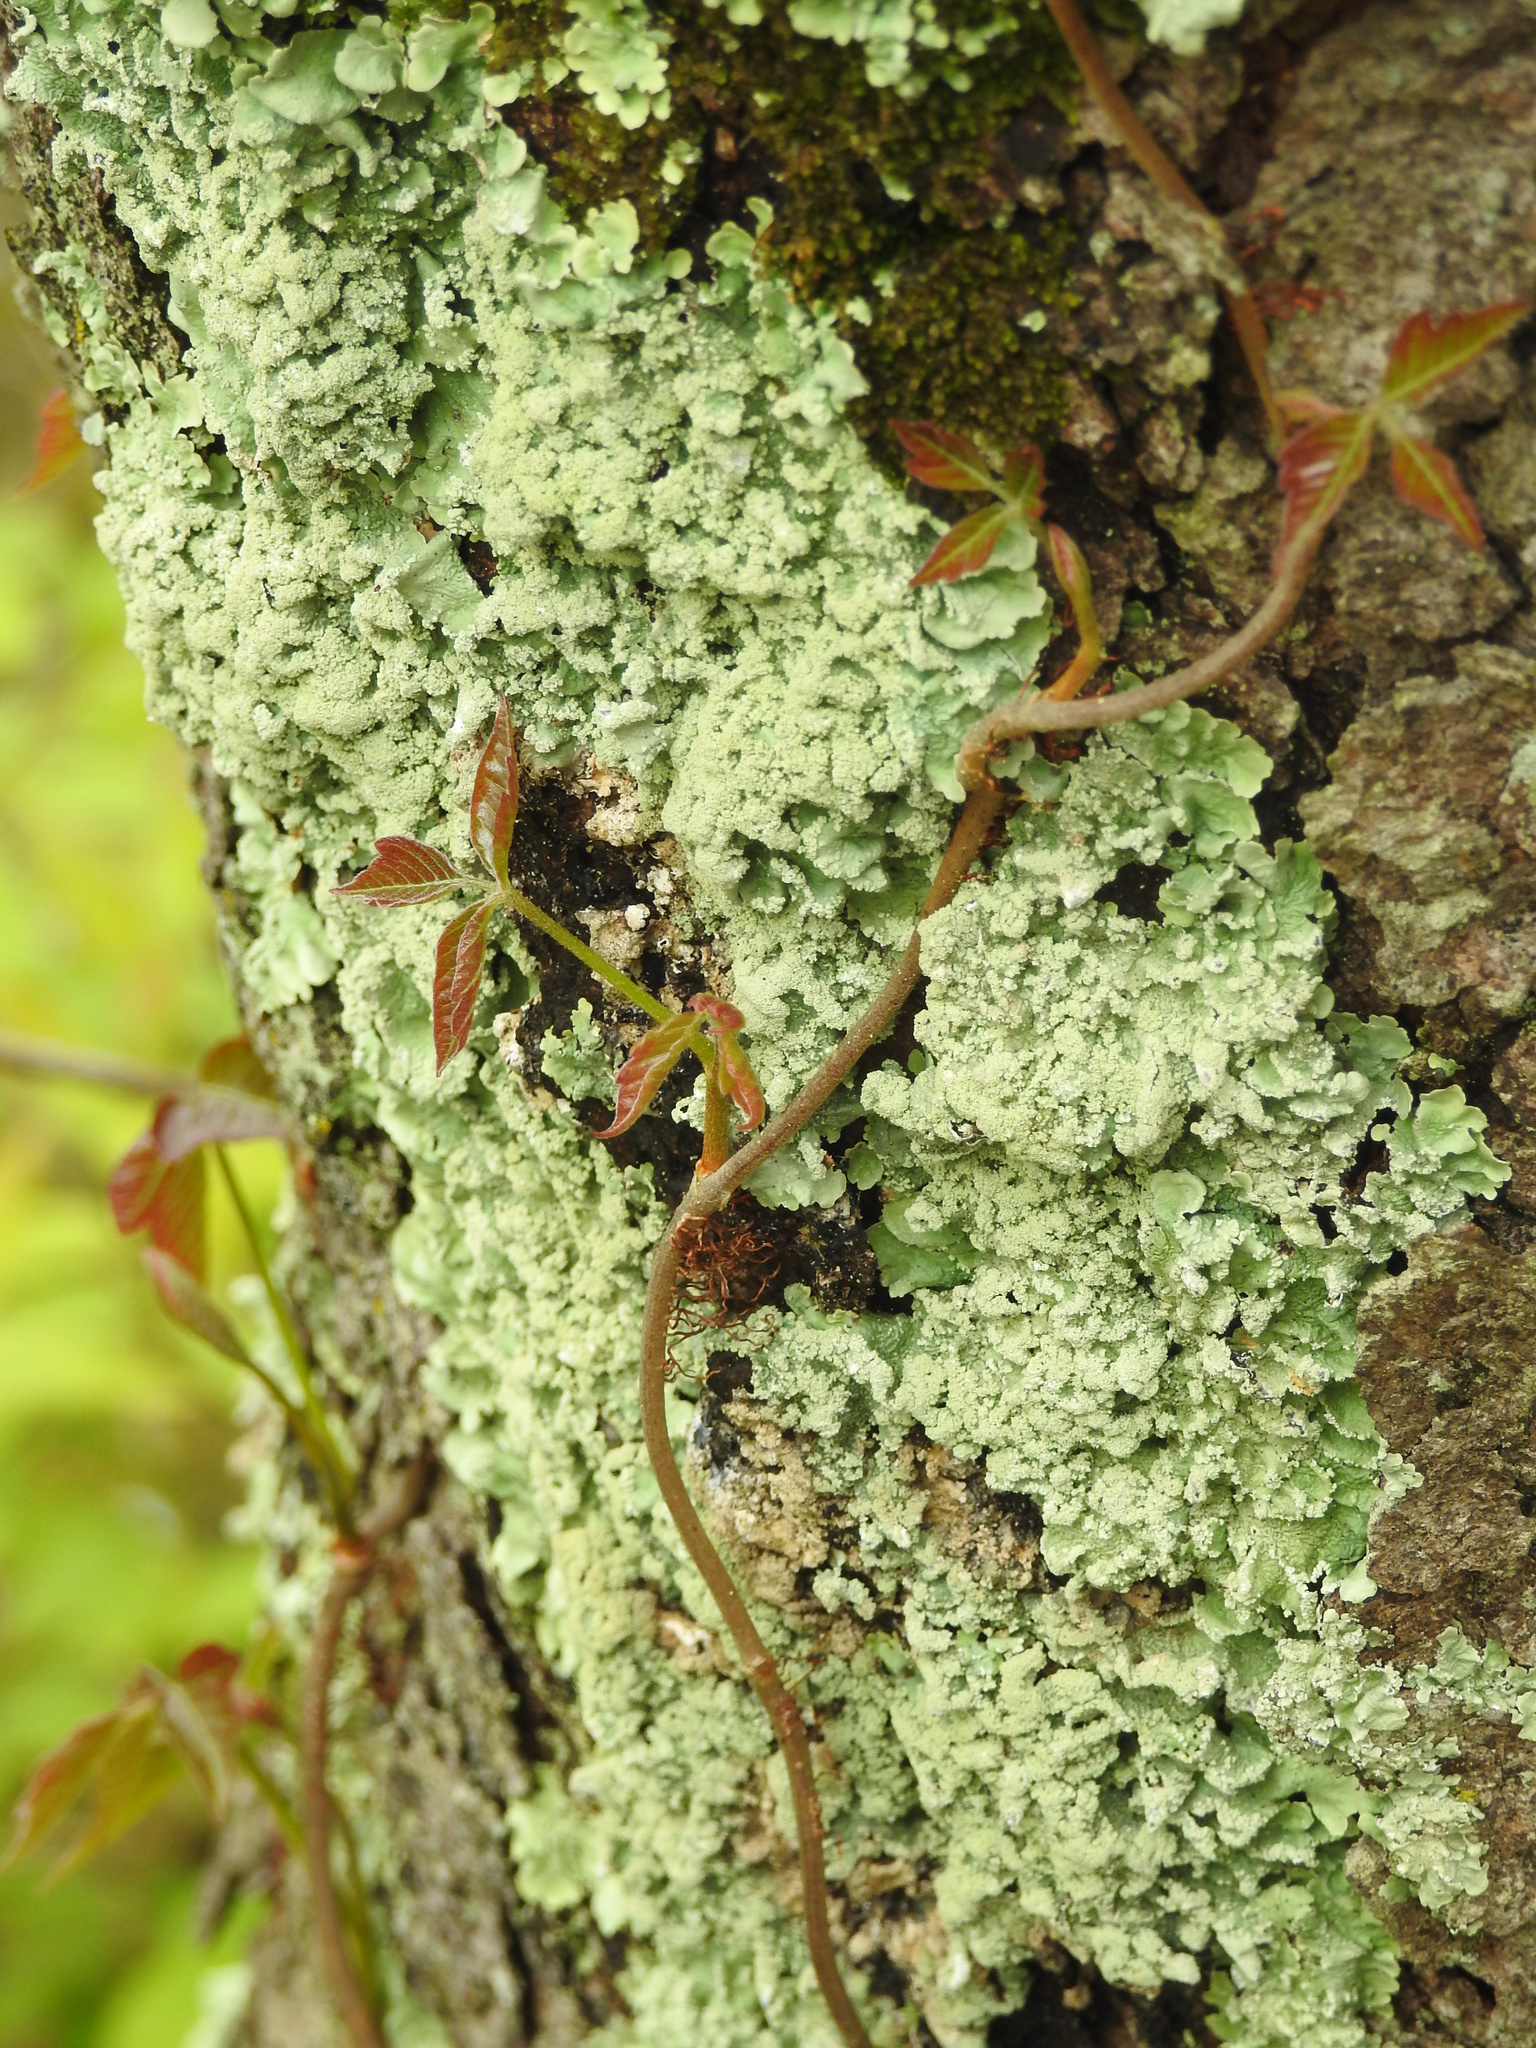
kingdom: Plantae
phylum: Tracheophyta
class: Magnoliopsida
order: Sapindales
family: Anacardiaceae
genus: Toxicodendron
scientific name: Toxicodendron radicans
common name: Poison ivy
